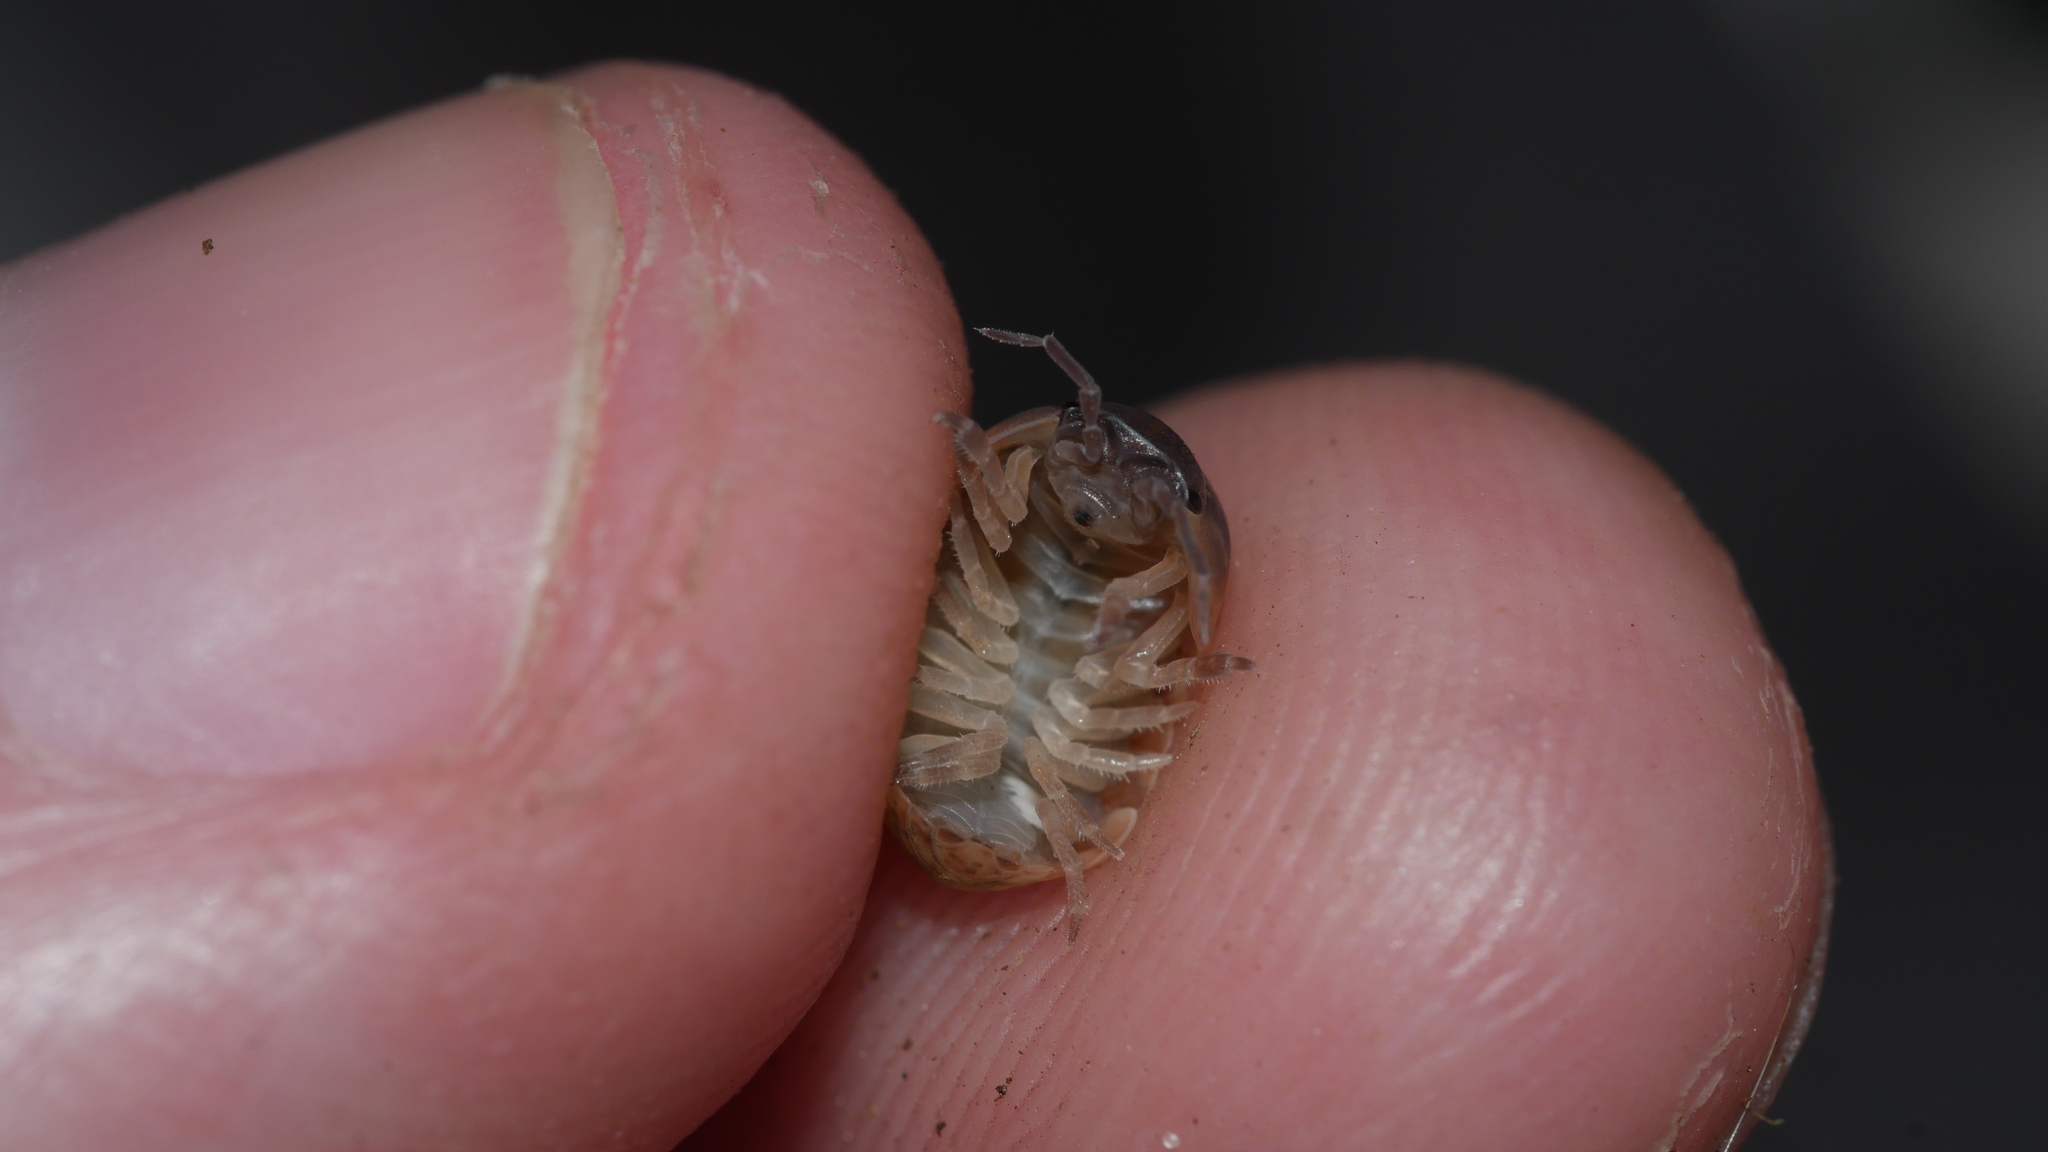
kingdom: Animalia
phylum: Arthropoda
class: Malacostraca
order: Isopoda
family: Armadillidiidae
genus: Armadillidium
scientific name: Armadillidium vulgare
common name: Common pill woodlouse
